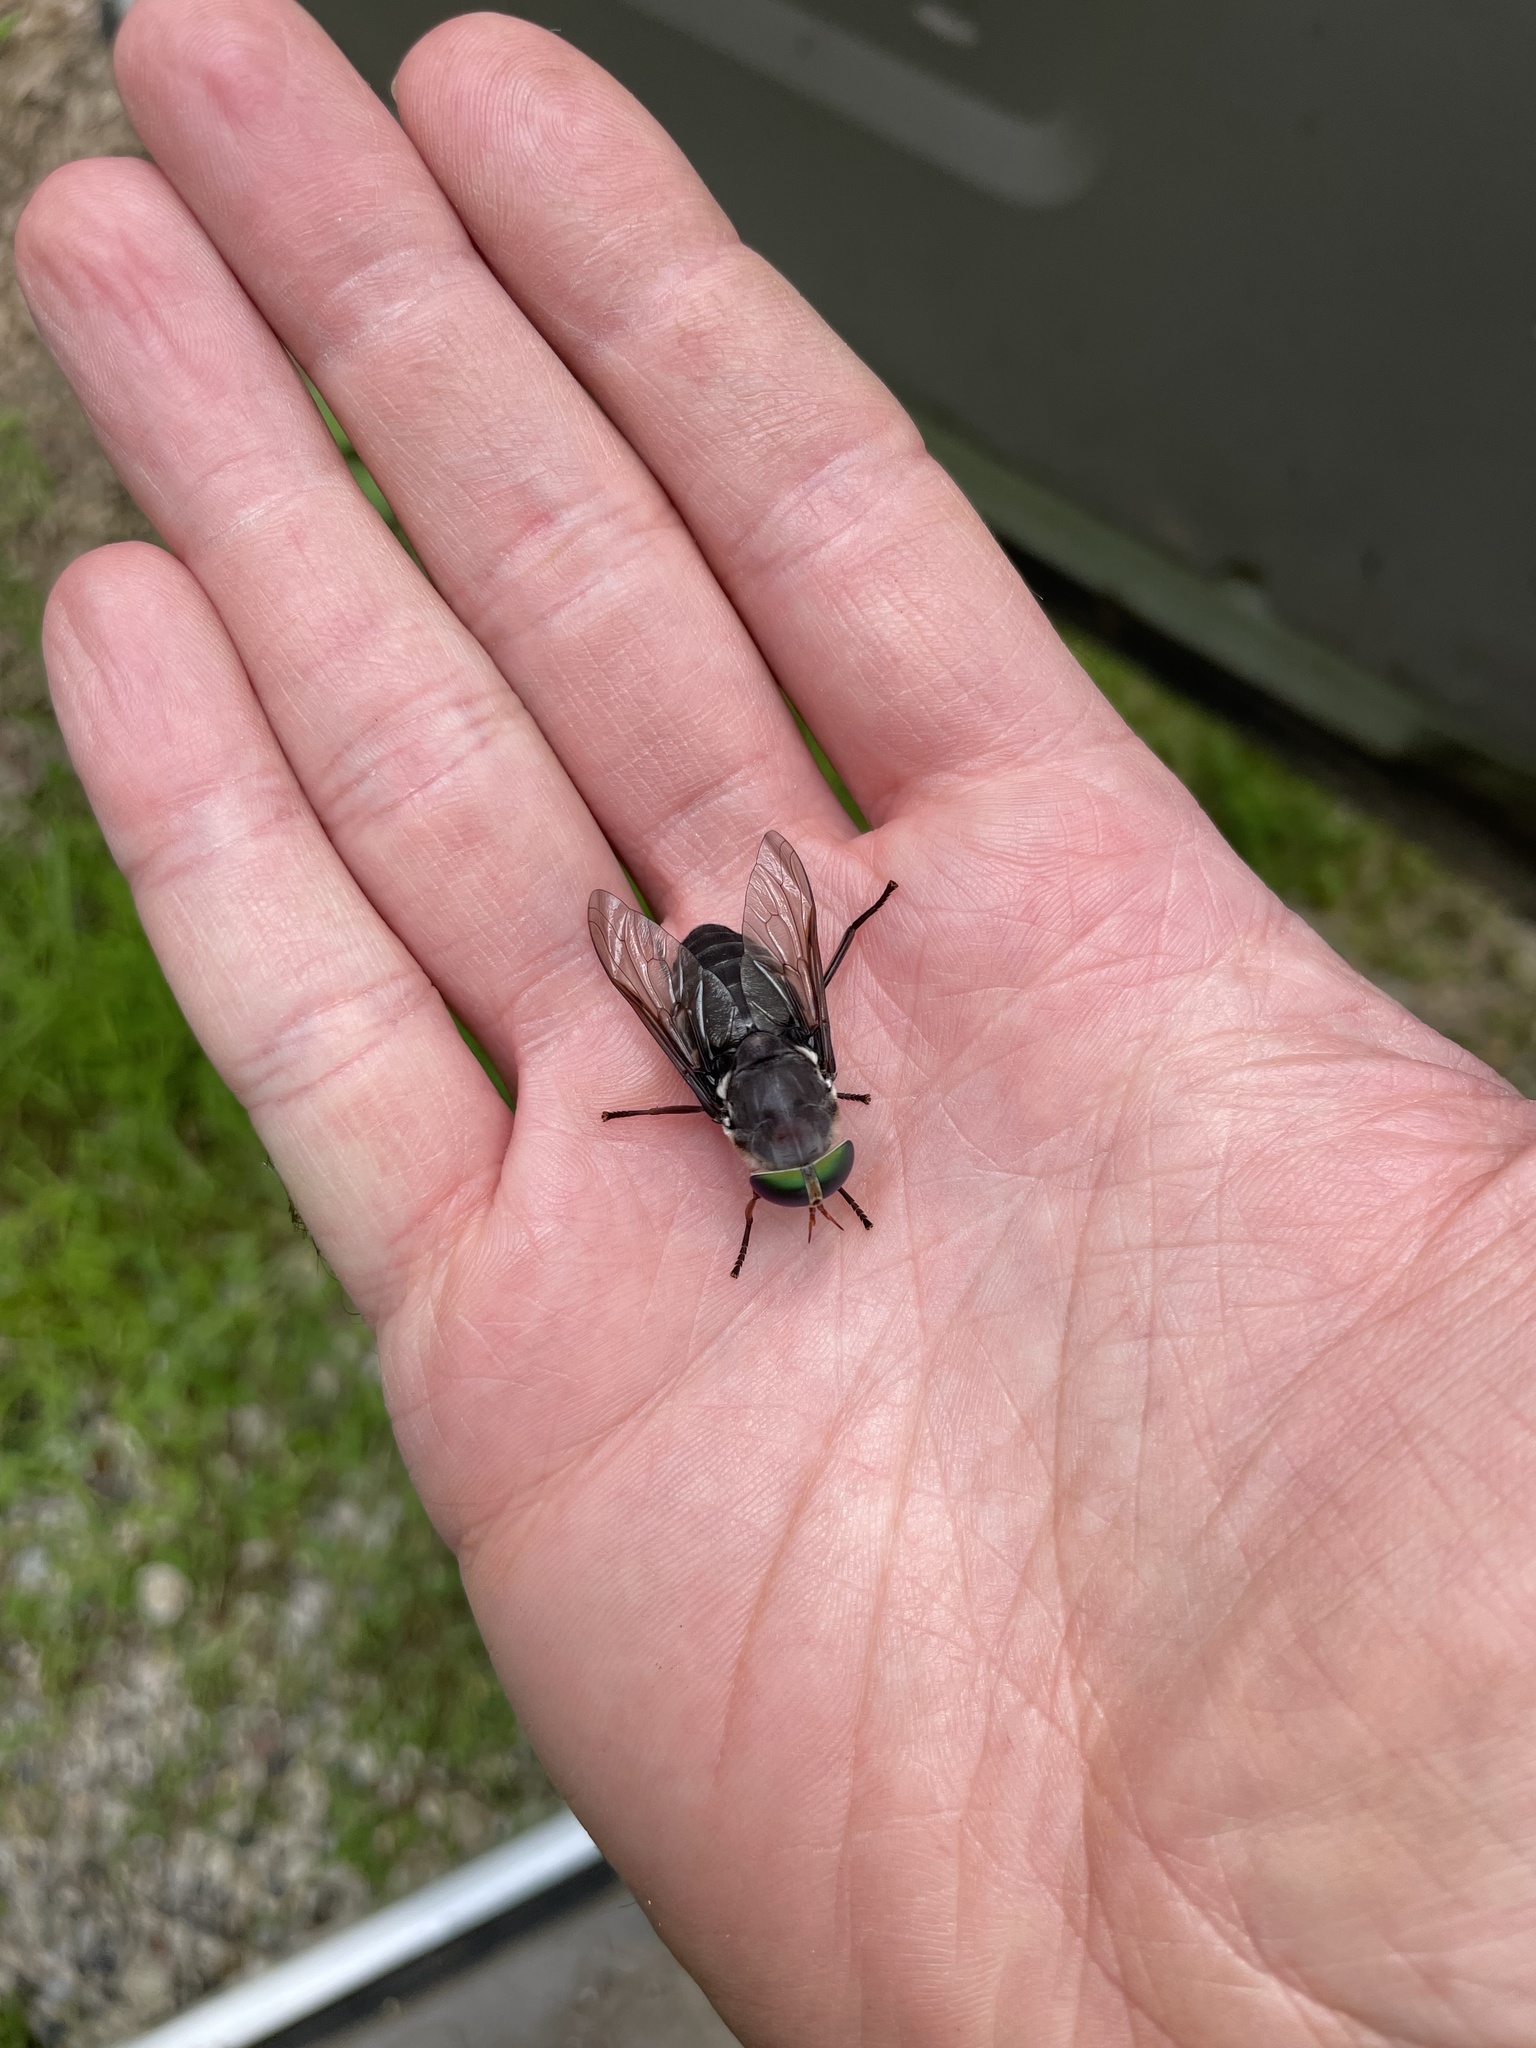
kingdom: Animalia
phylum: Arthropoda
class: Insecta
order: Diptera
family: Tabanidae
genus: Tabanus
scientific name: Tabanus americanus
